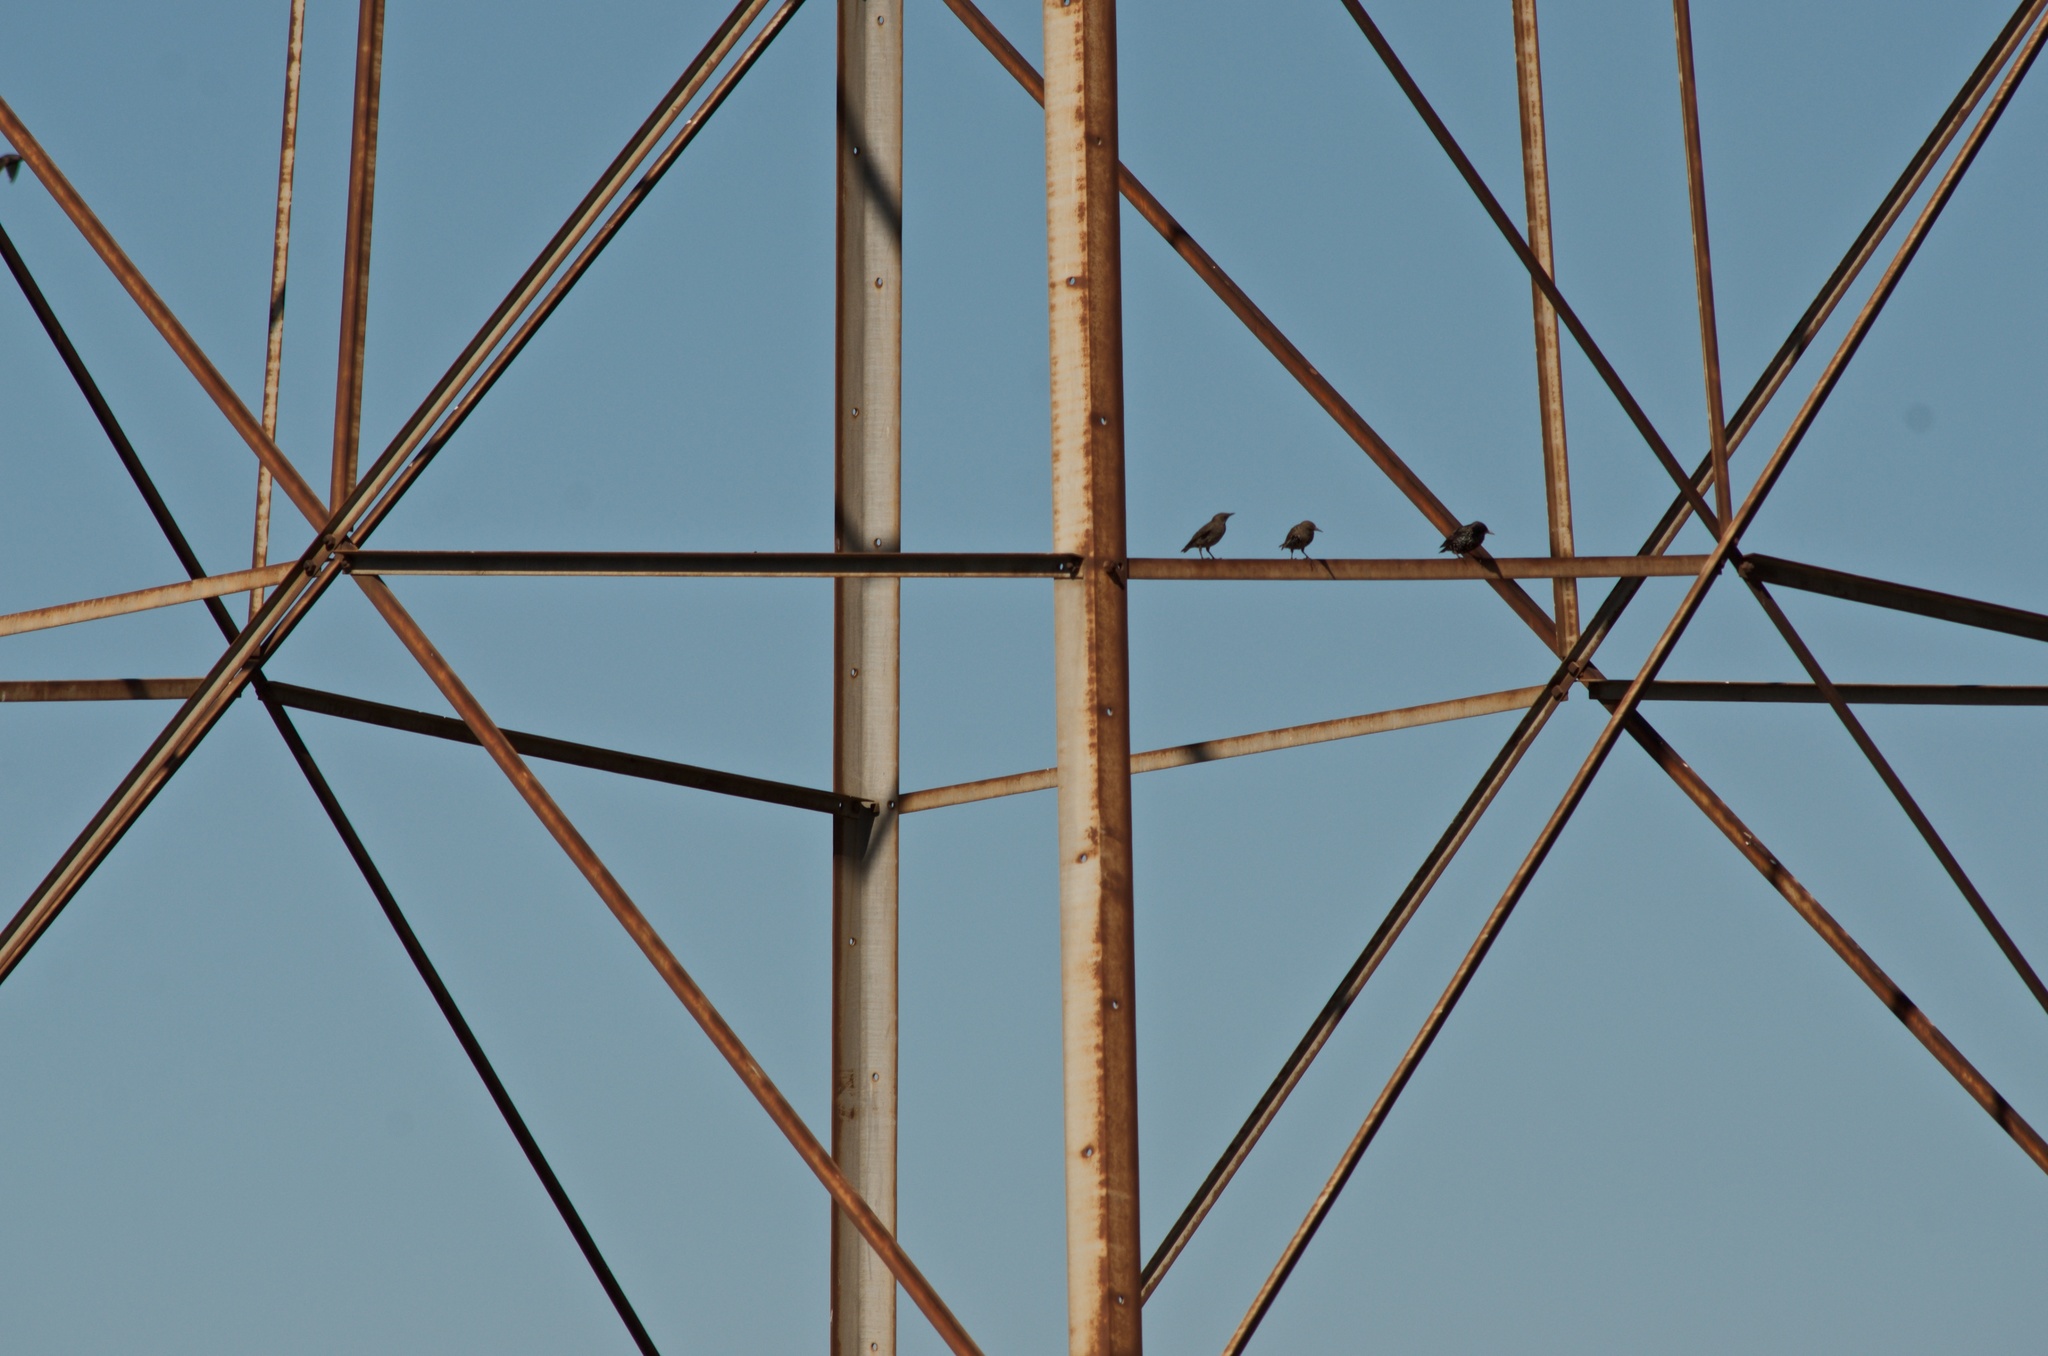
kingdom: Animalia
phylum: Chordata
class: Aves
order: Passeriformes
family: Sturnidae
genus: Sturnus
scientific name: Sturnus vulgaris
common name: Common starling
